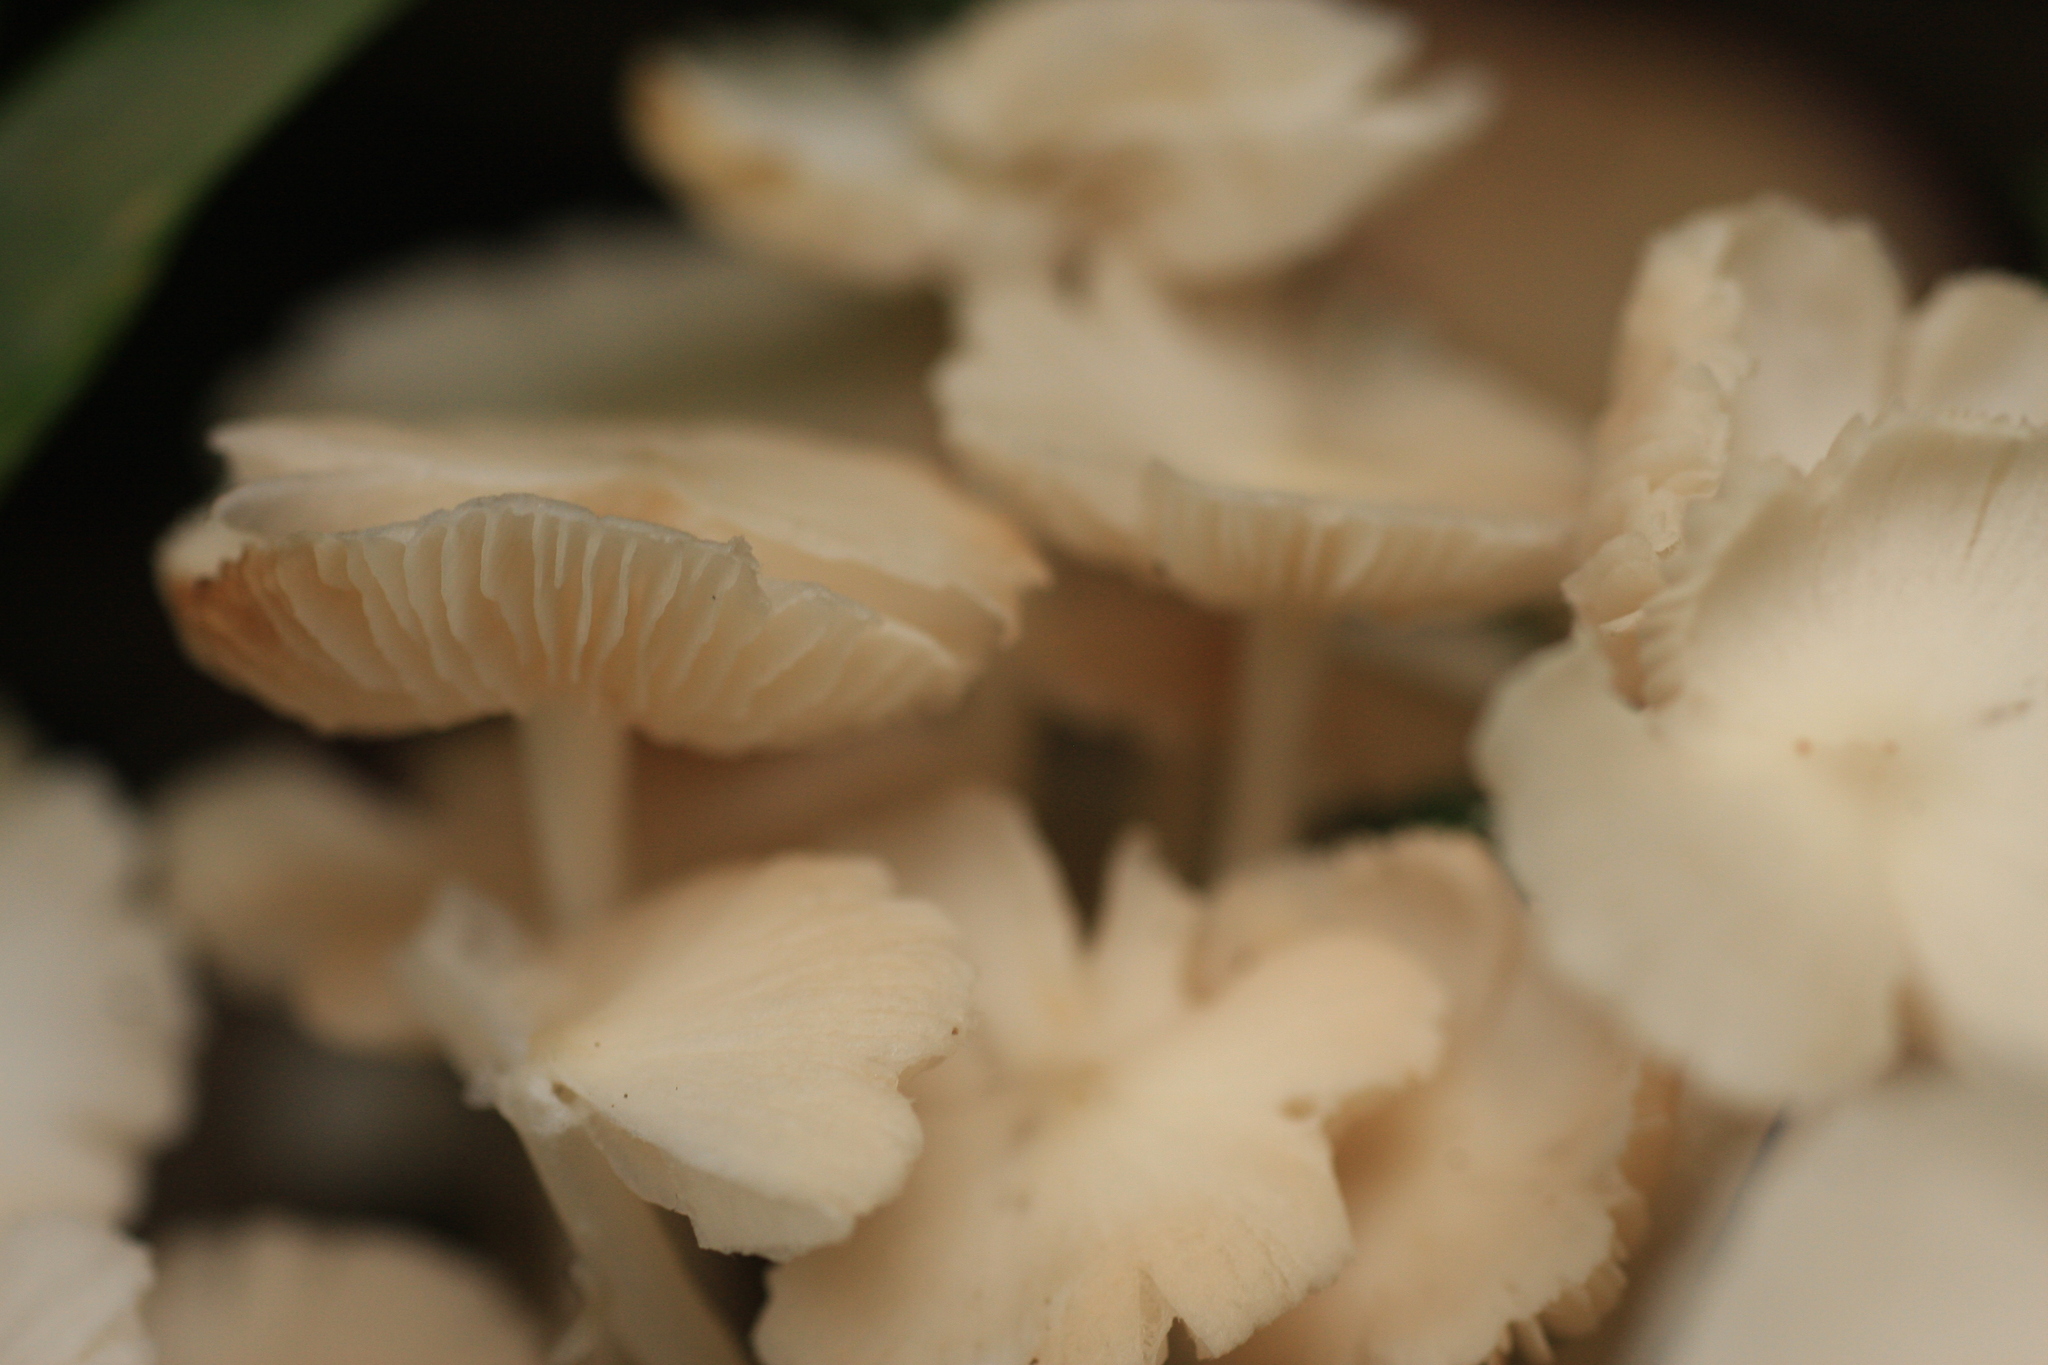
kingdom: Fungi
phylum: Basidiomycota
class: Agaricomycetes
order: Agaricales
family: Lyophyllaceae
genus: Termitomyces
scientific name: Termitomyces microcarpus
